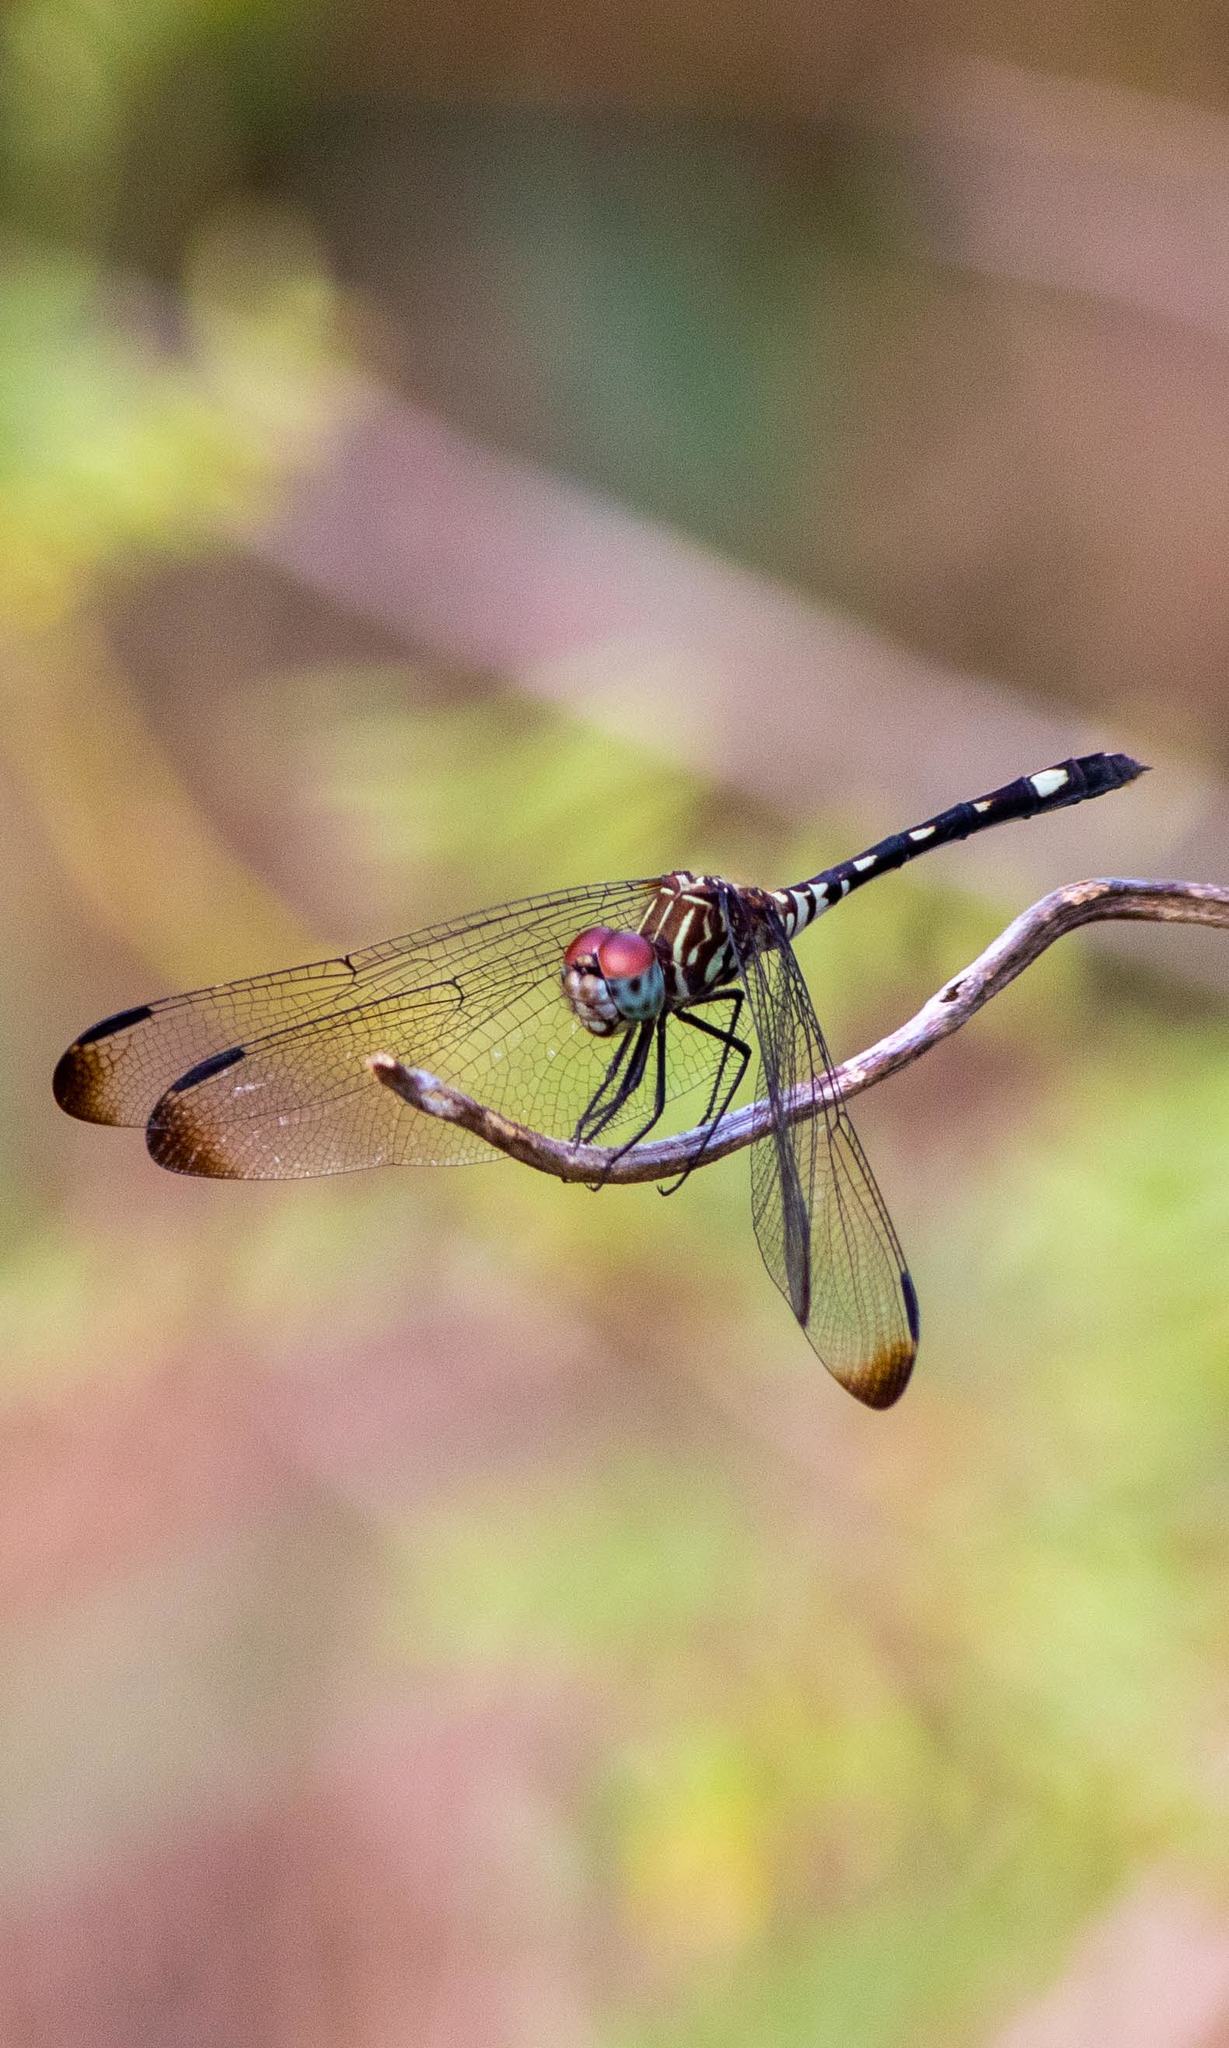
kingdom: Animalia
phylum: Arthropoda
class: Insecta
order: Odonata
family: Libellulidae
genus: Dythemis
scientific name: Dythemis velox
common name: Swift setwing
